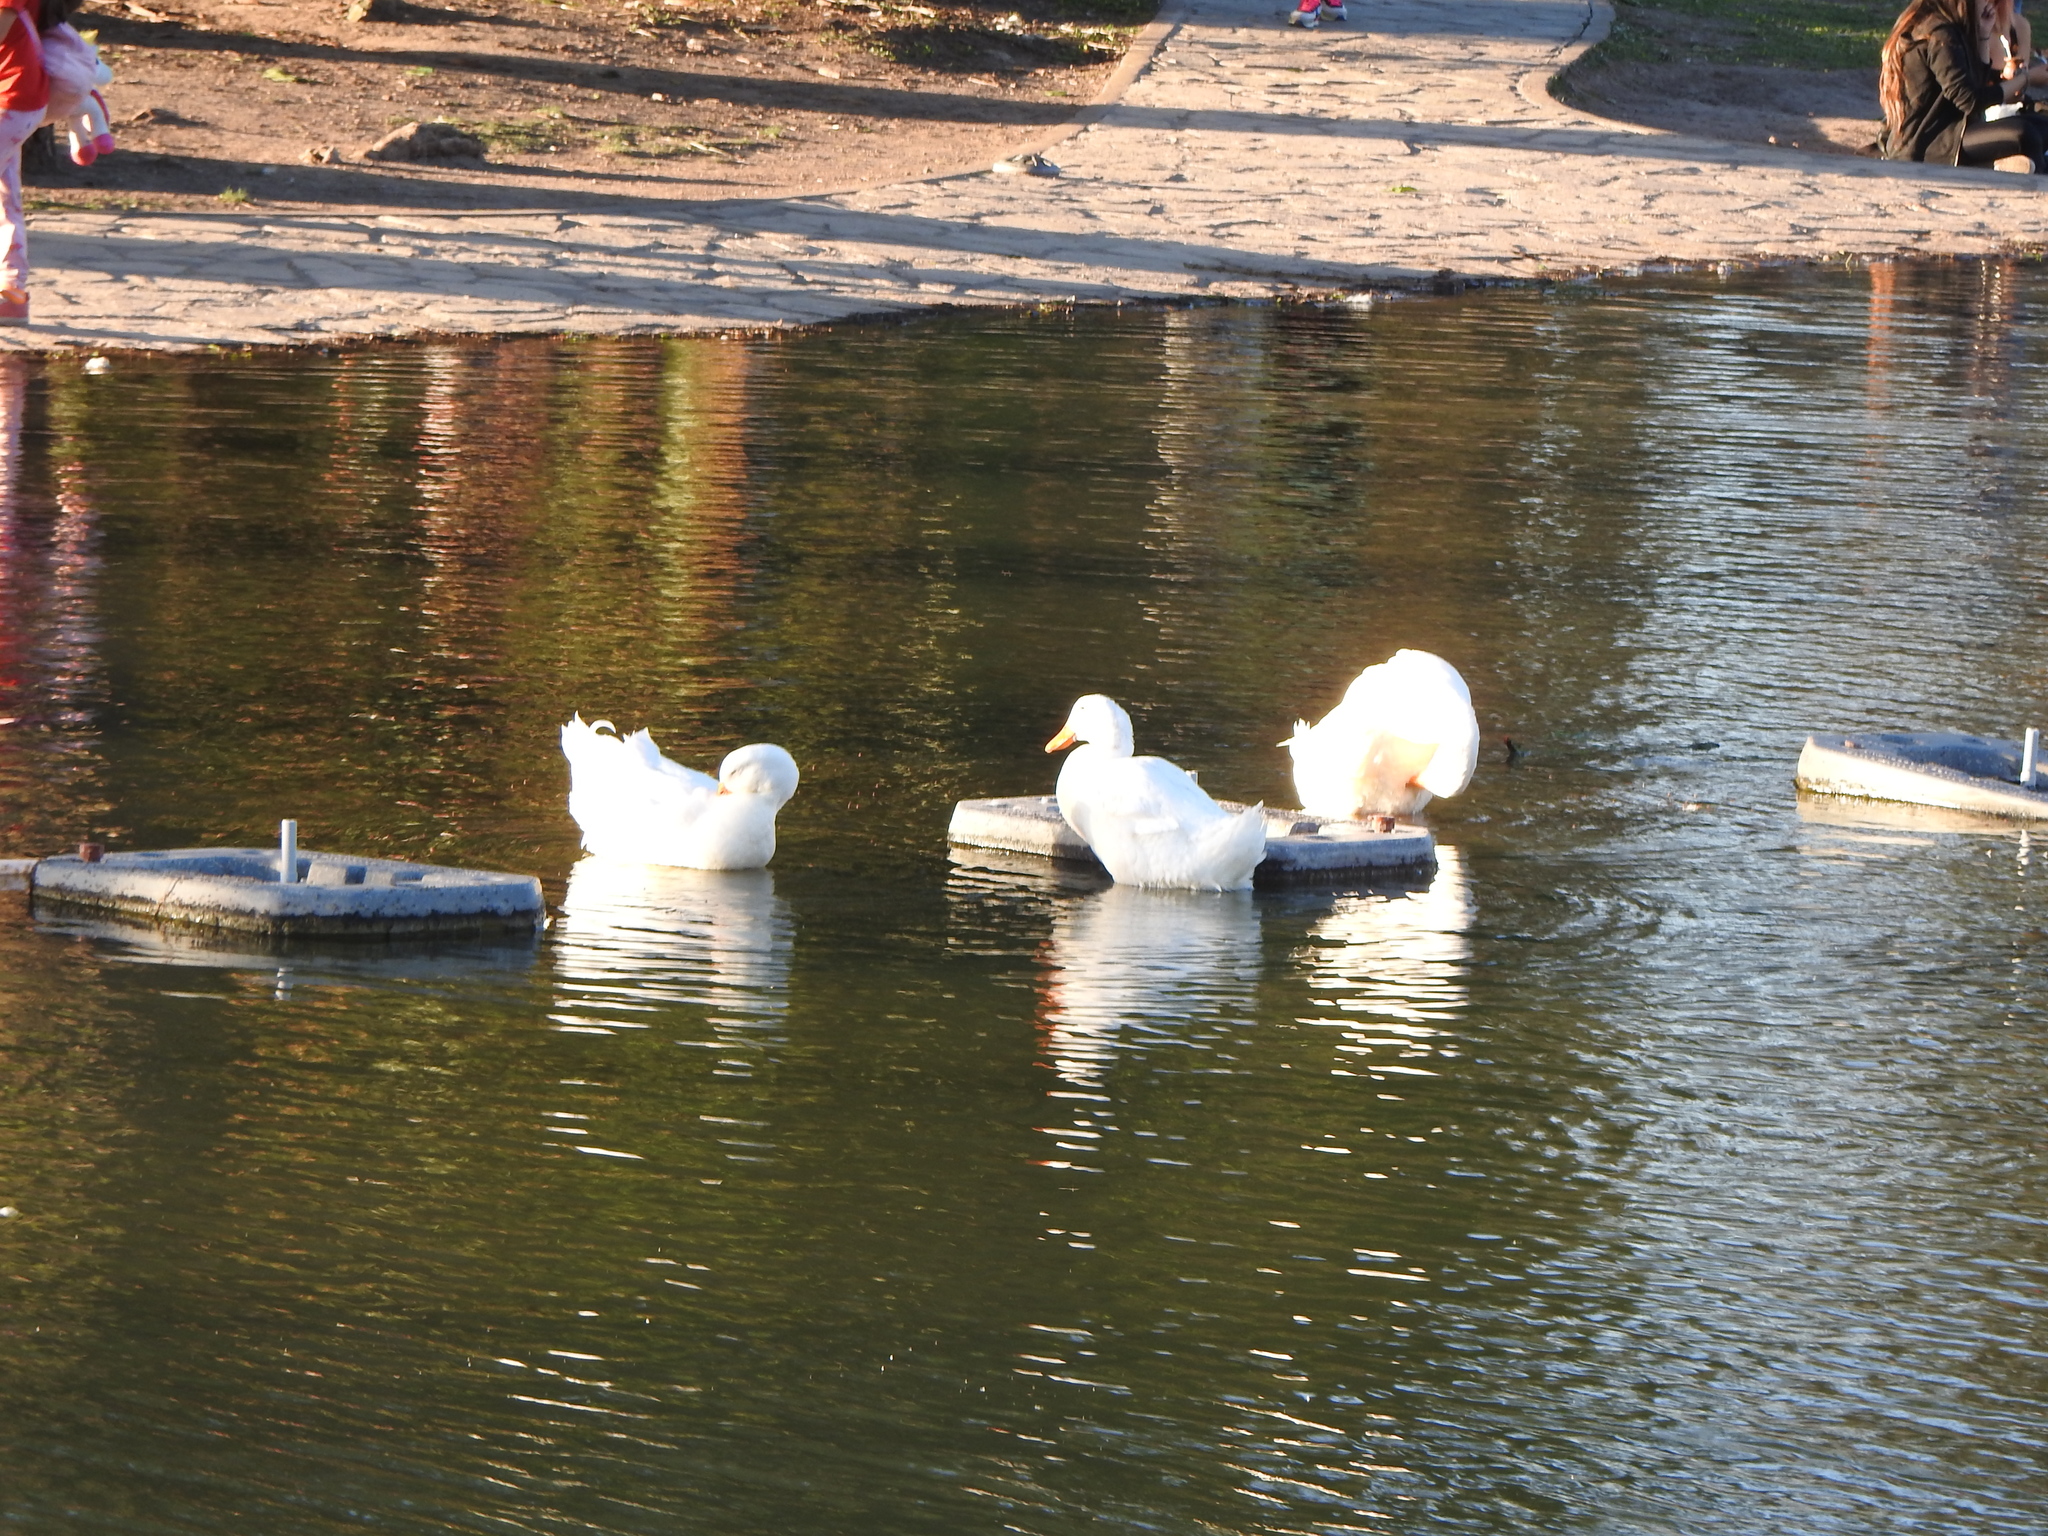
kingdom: Animalia
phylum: Chordata
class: Aves
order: Anseriformes
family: Anatidae
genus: Anas
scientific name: Anas platyrhynchos
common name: Mallard
